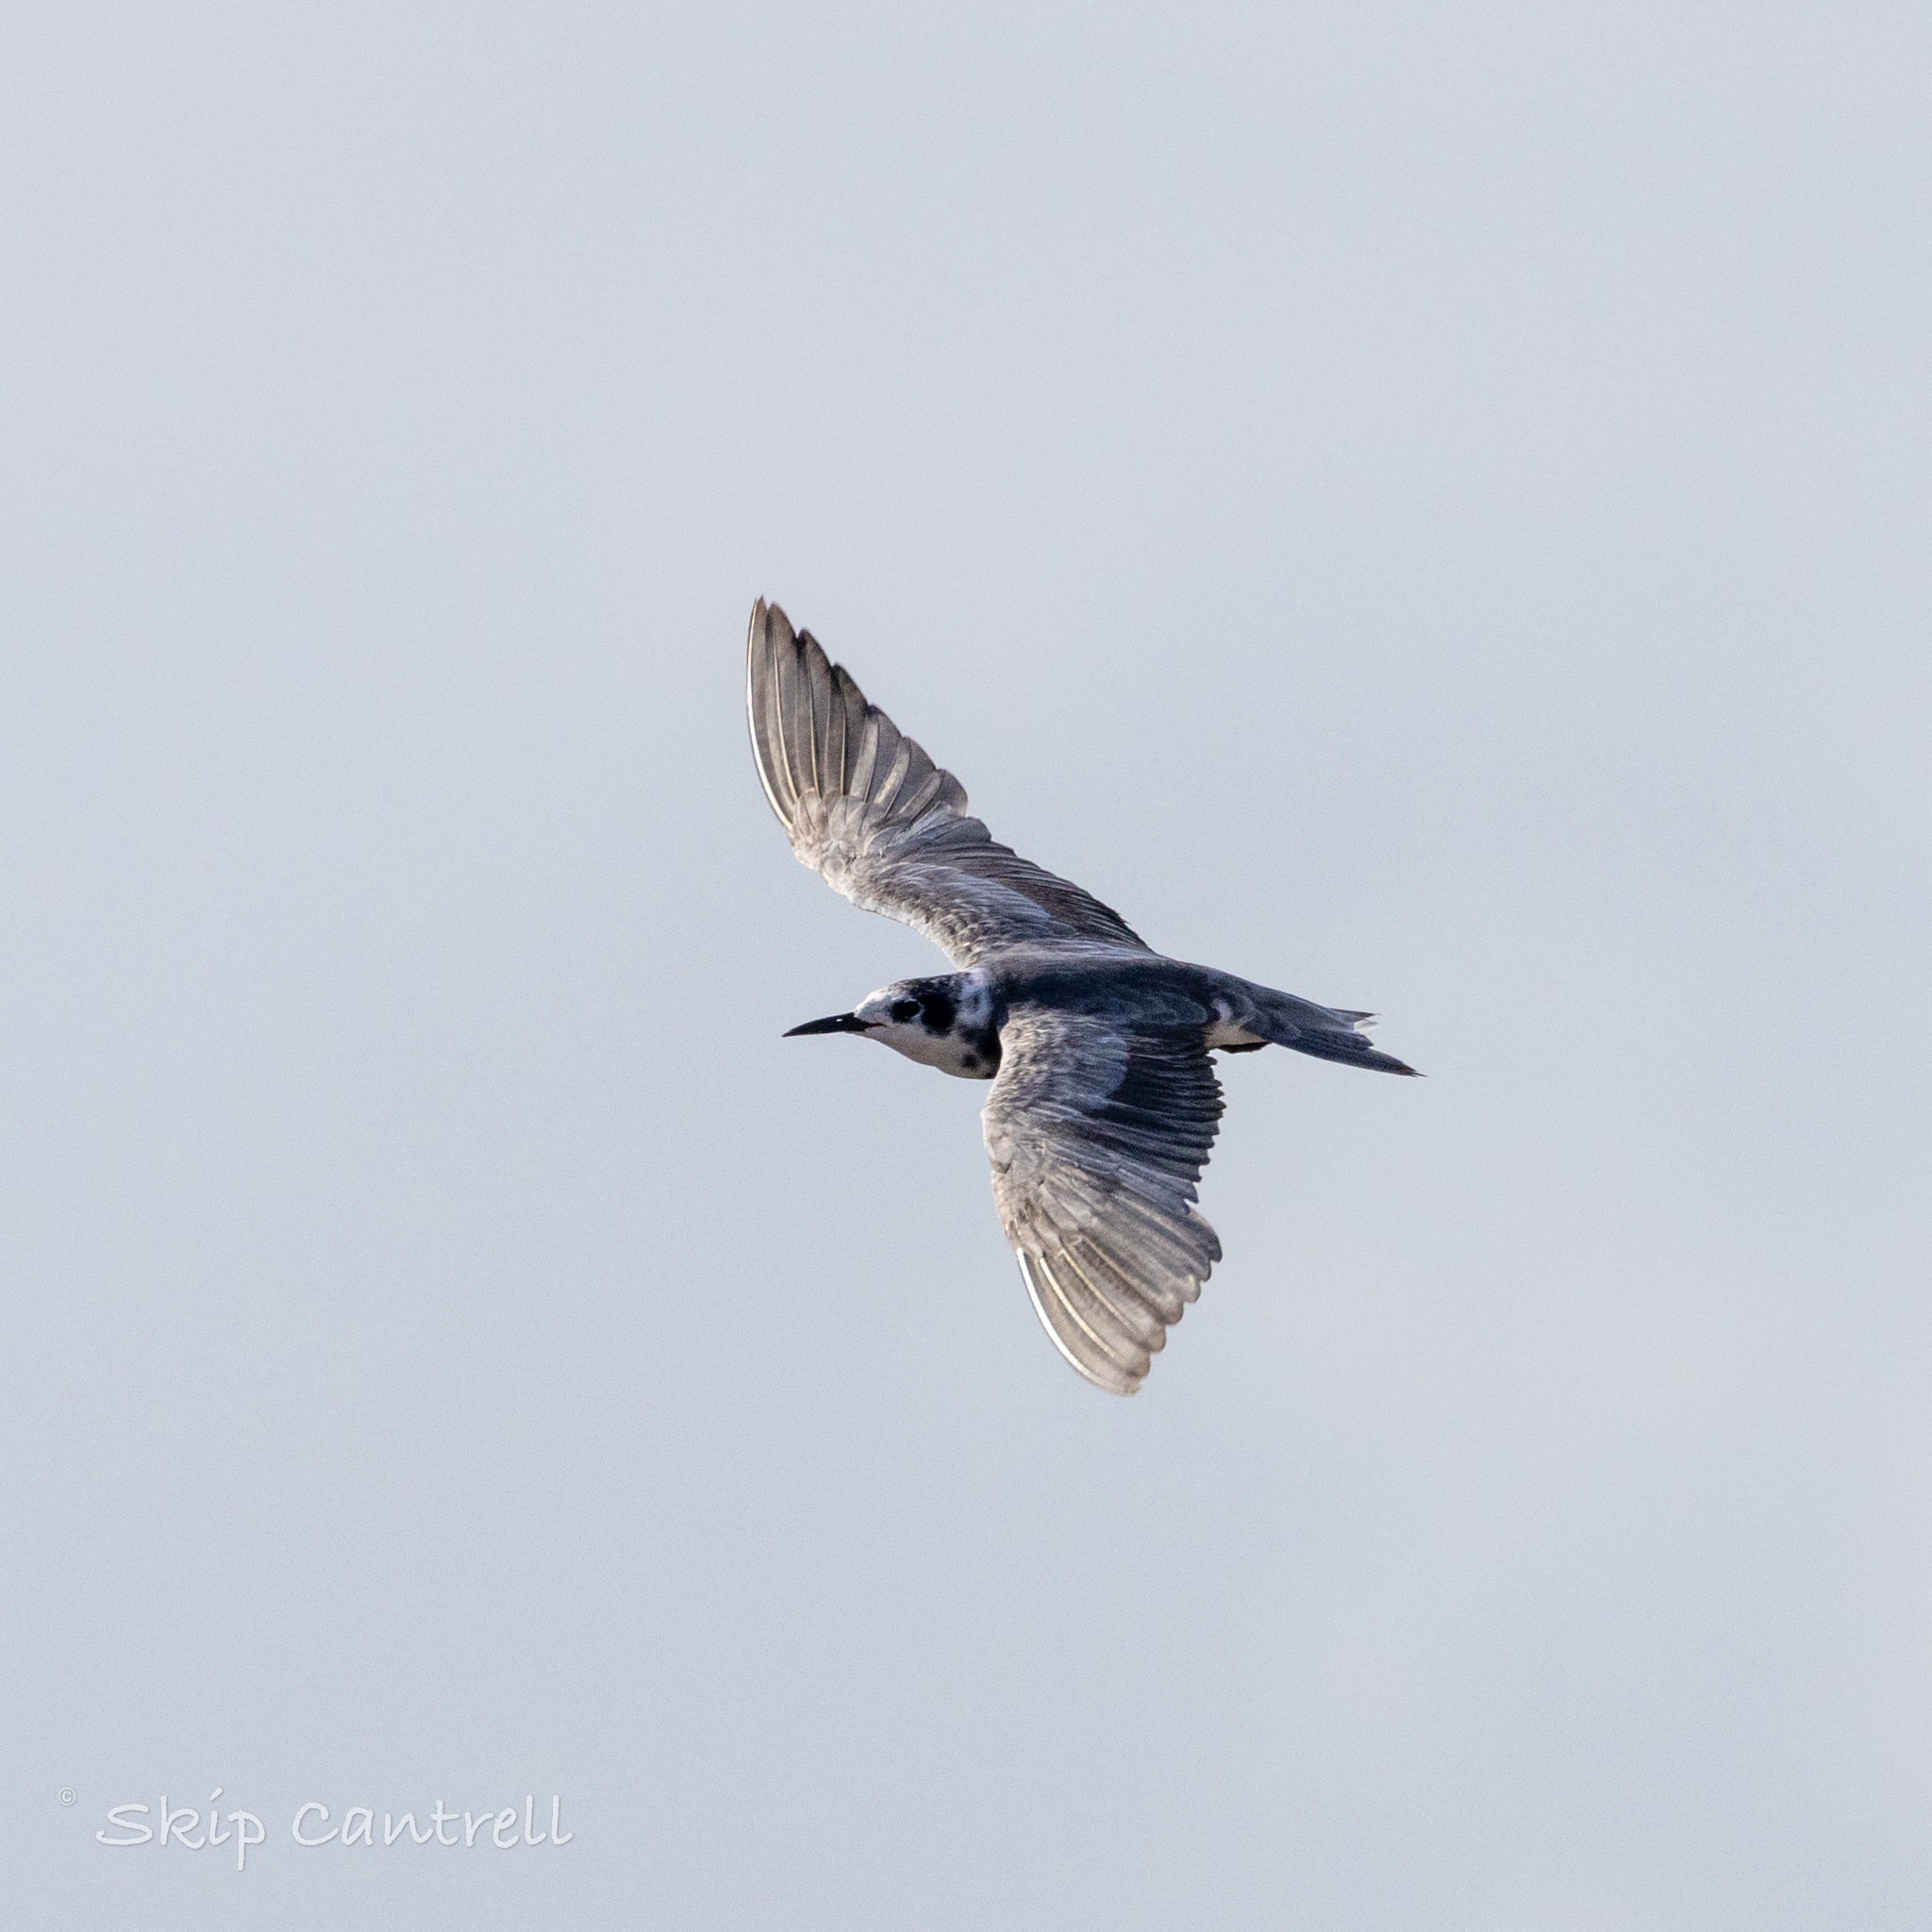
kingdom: Animalia
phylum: Chordata
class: Aves
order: Charadriiformes
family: Laridae
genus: Chlidonias
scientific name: Chlidonias niger
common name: Black tern
